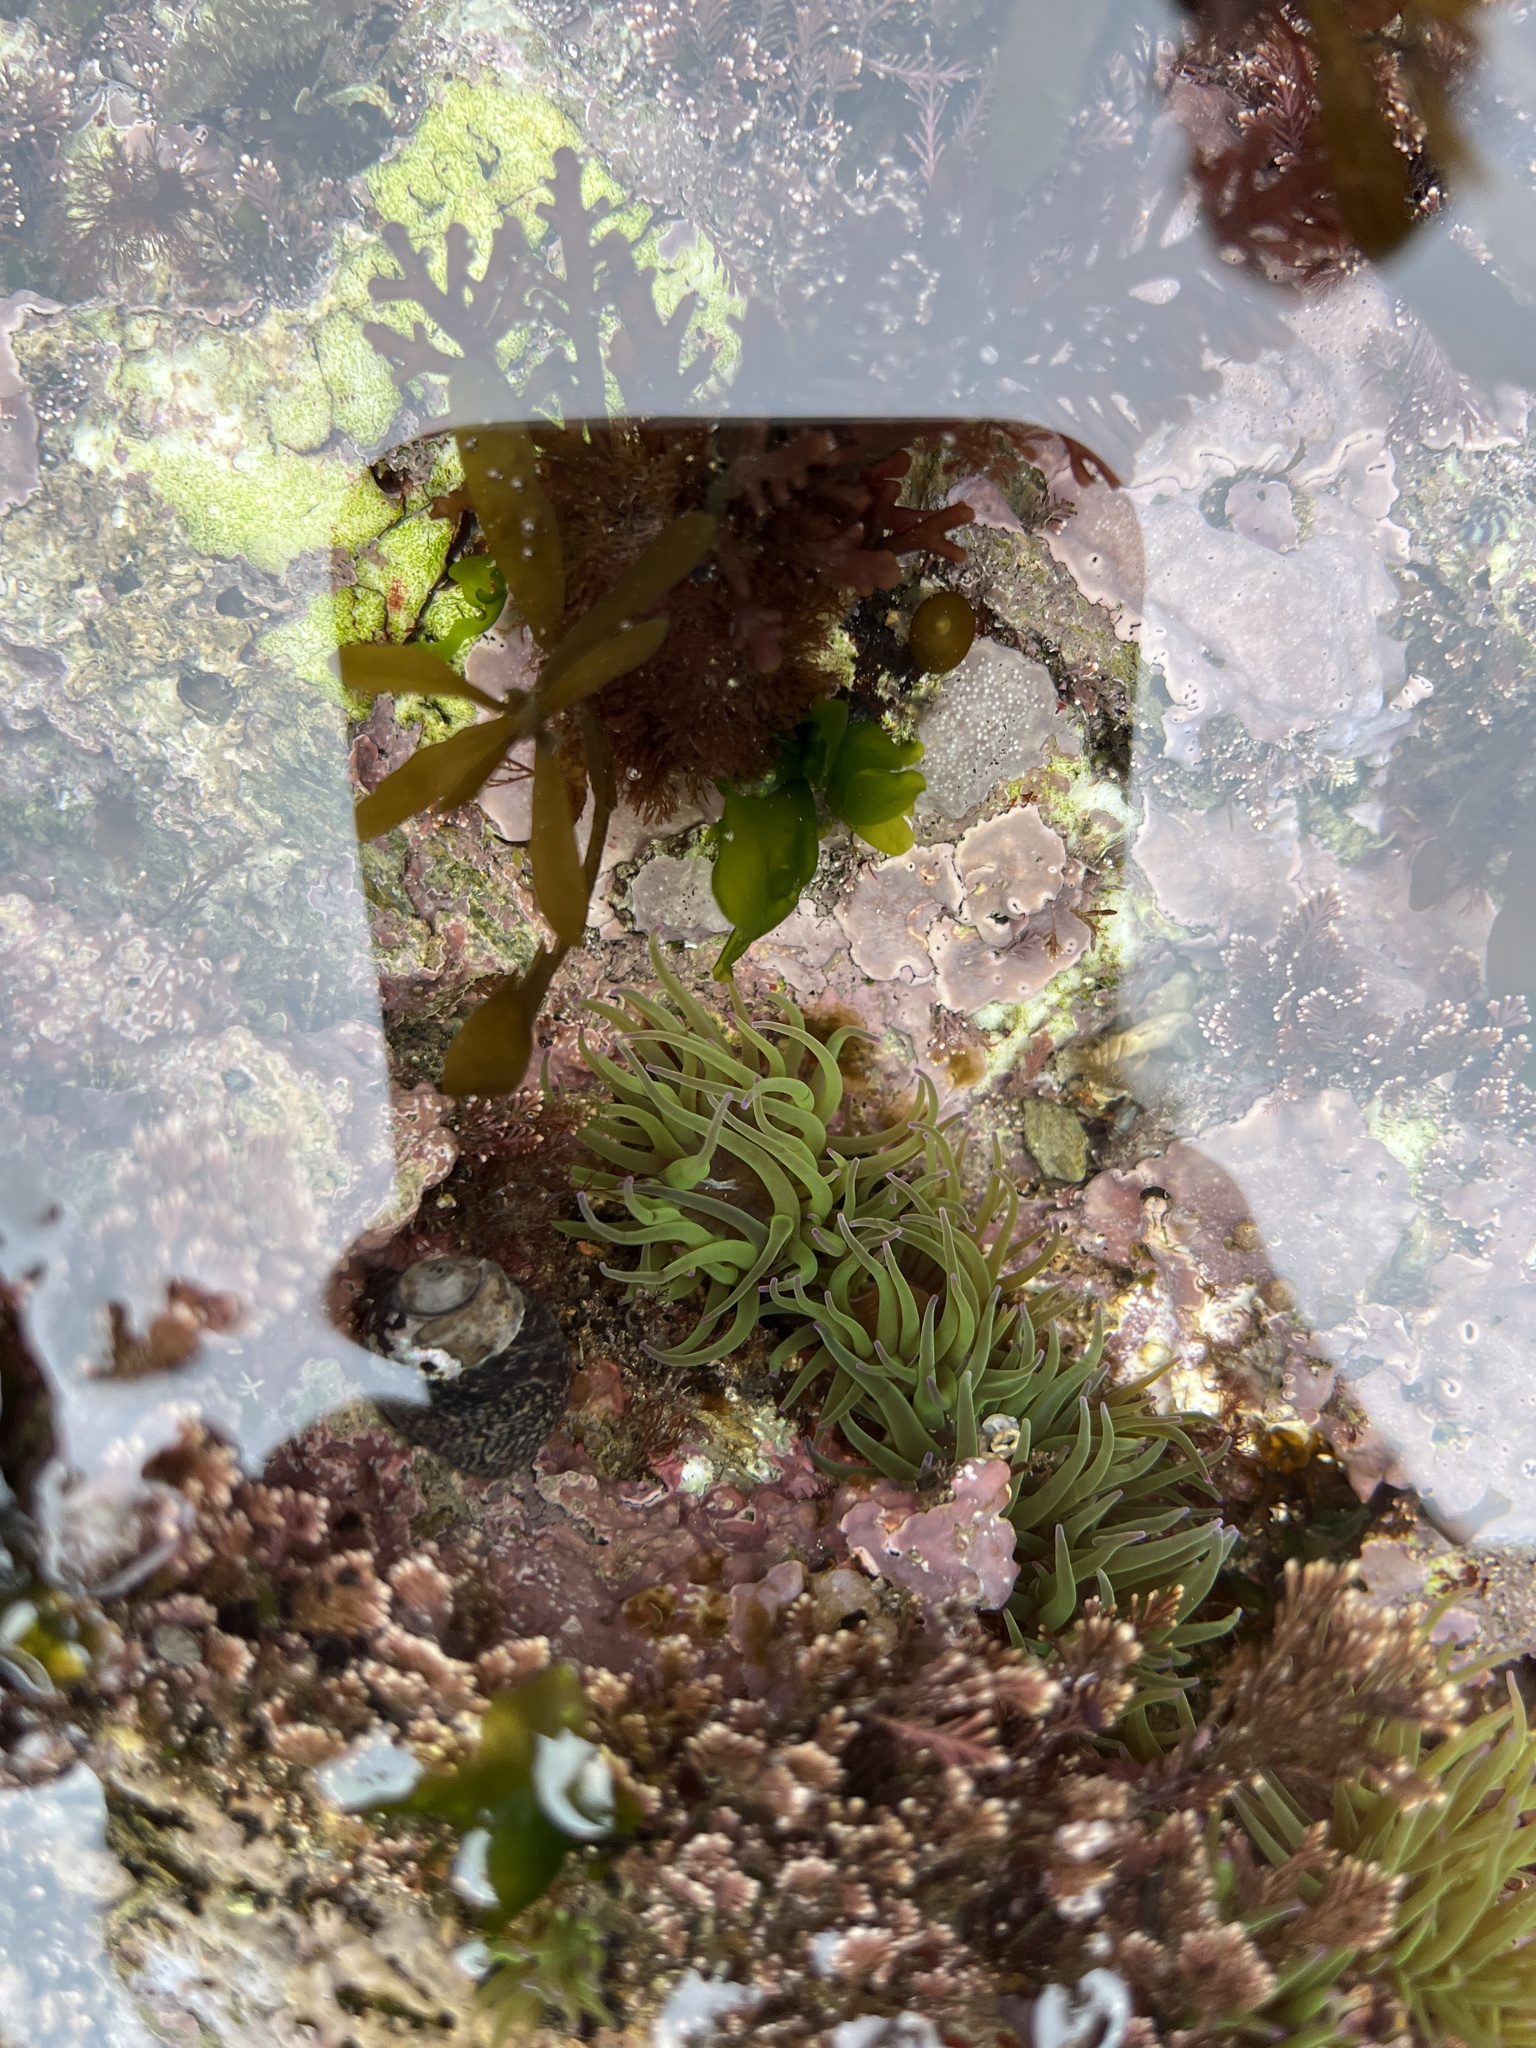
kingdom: Animalia
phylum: Cnidaria
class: Anthozoa
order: Actiniaria
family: Actiniidae
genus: Anemonia
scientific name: Anemonia viridis
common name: Snakelocks anemone
